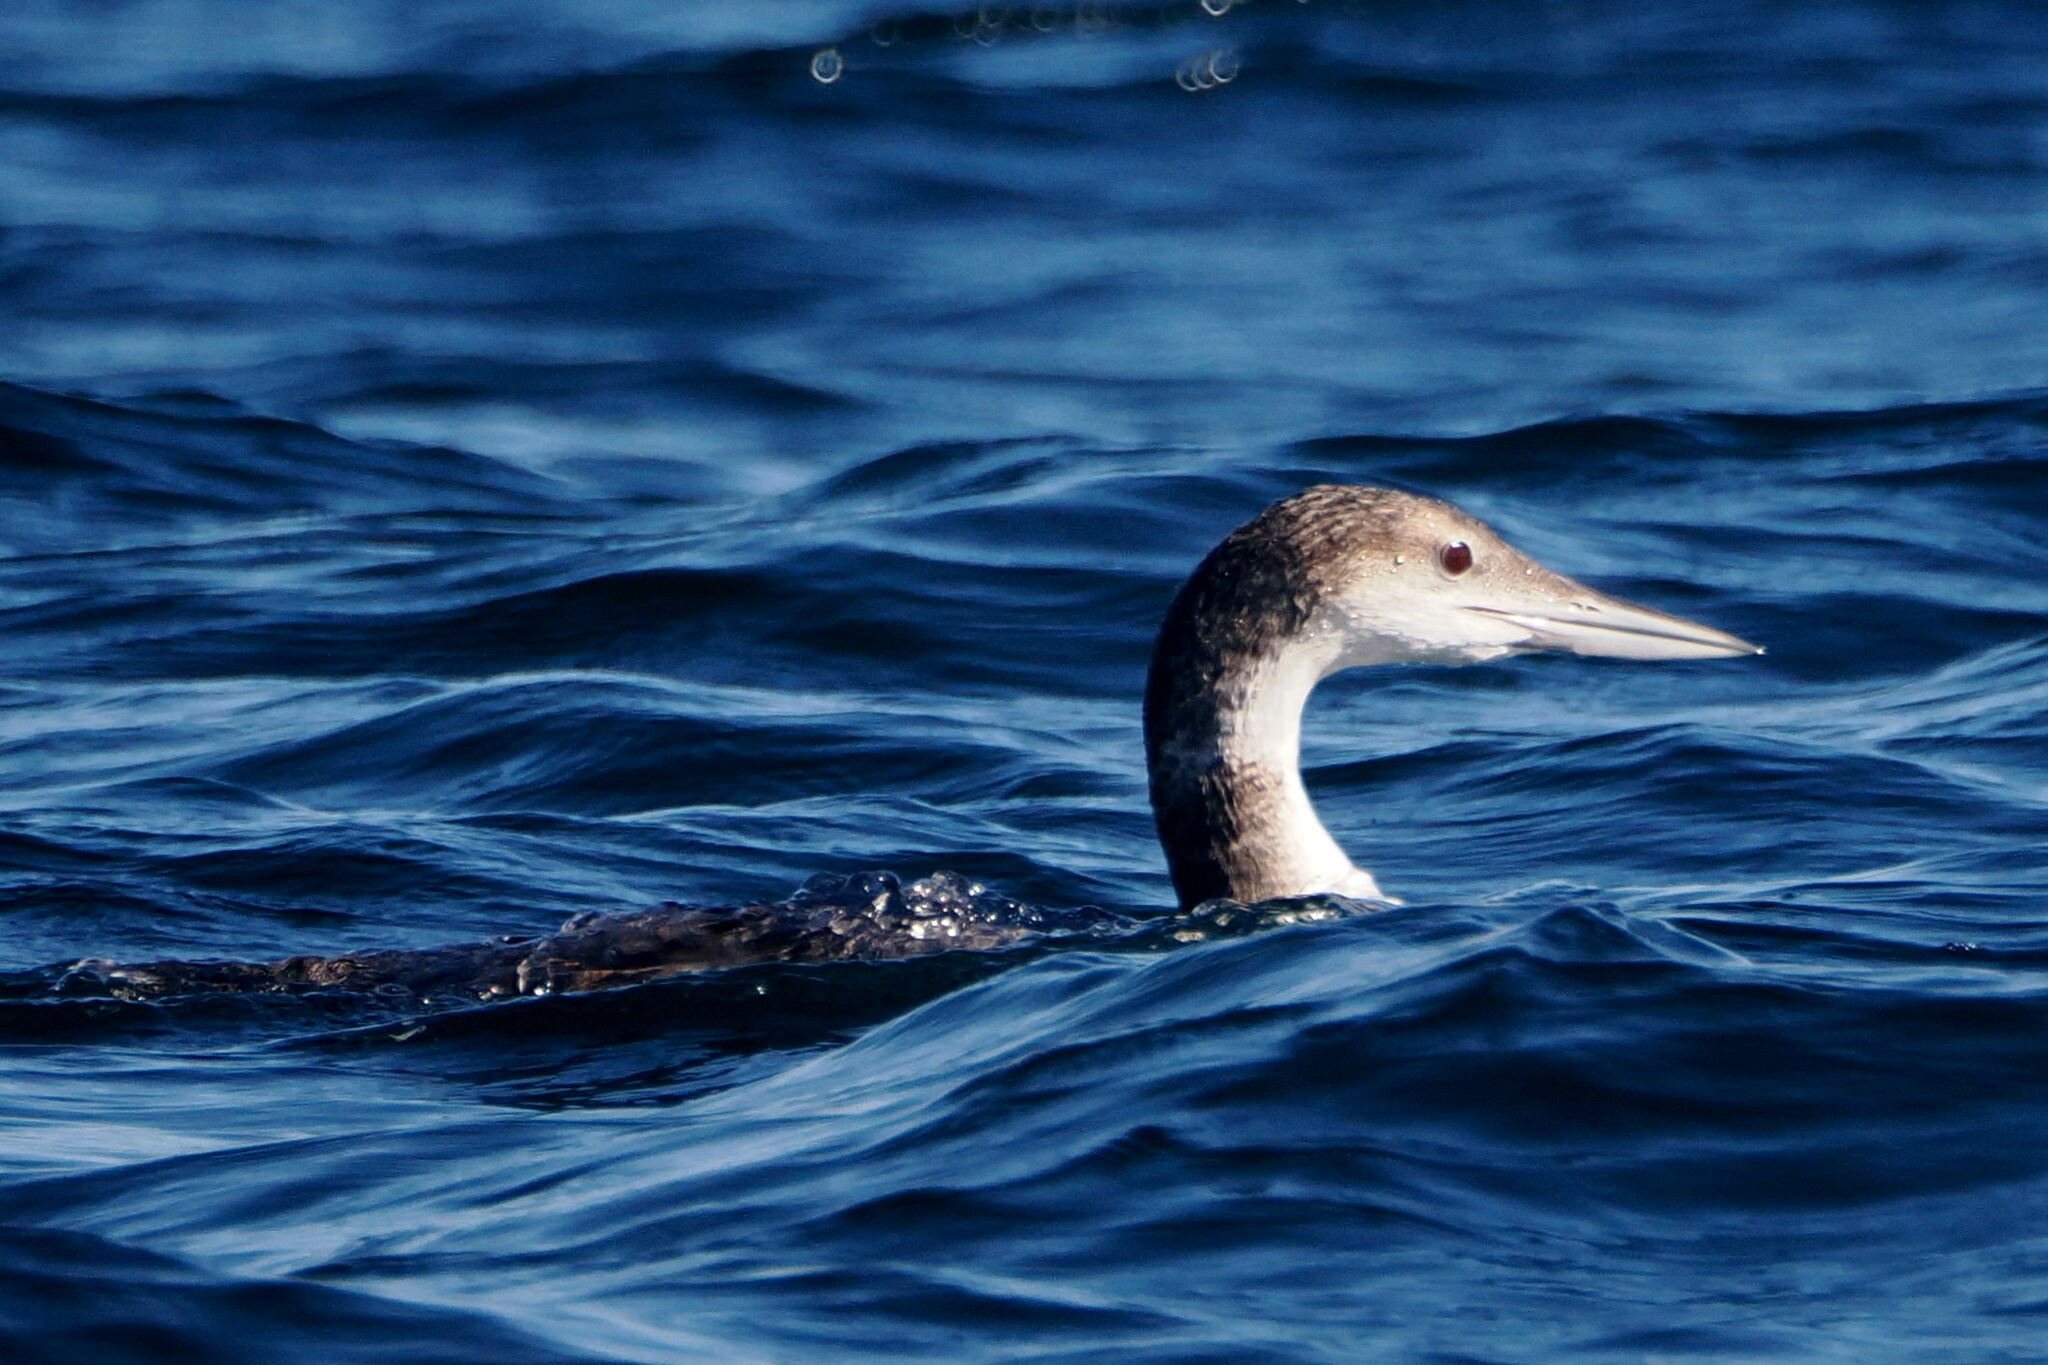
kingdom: Animalia
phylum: Chordata
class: Aves
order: Gaviiformes
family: Gaviidae
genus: Gavia
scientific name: Gavia immer
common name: Common loon
